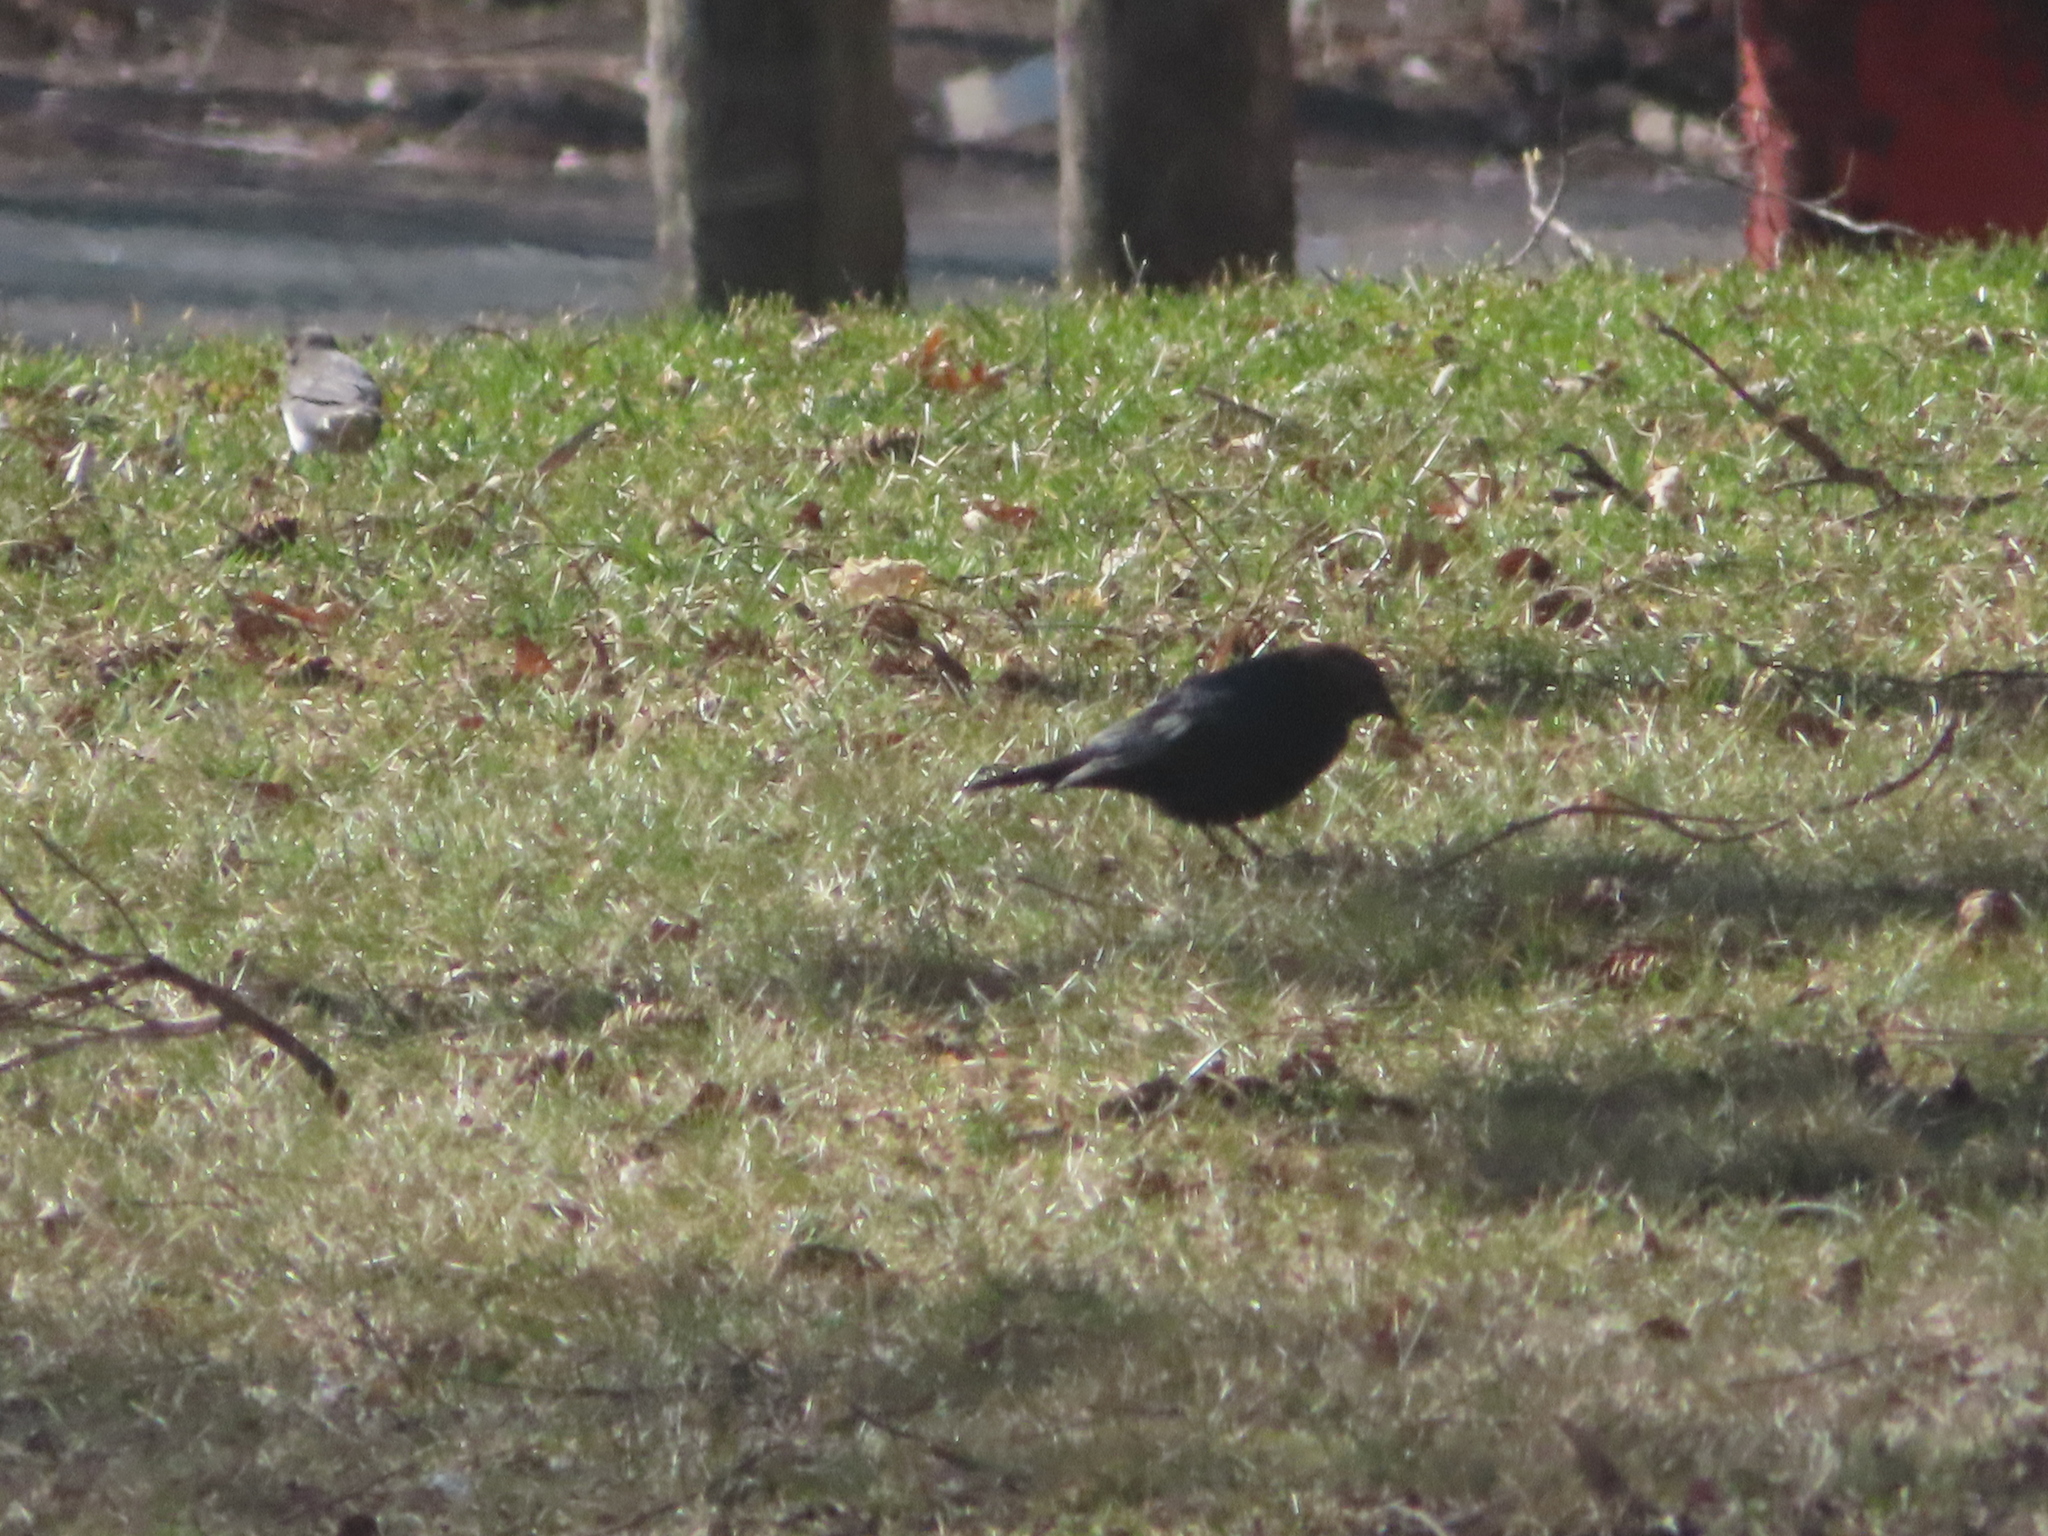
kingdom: Animalia
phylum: Chordata
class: Aves
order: Passeriformes
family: Icteridae
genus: Molothrus
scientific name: Molothrus ater
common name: Brown-headed cowbird
